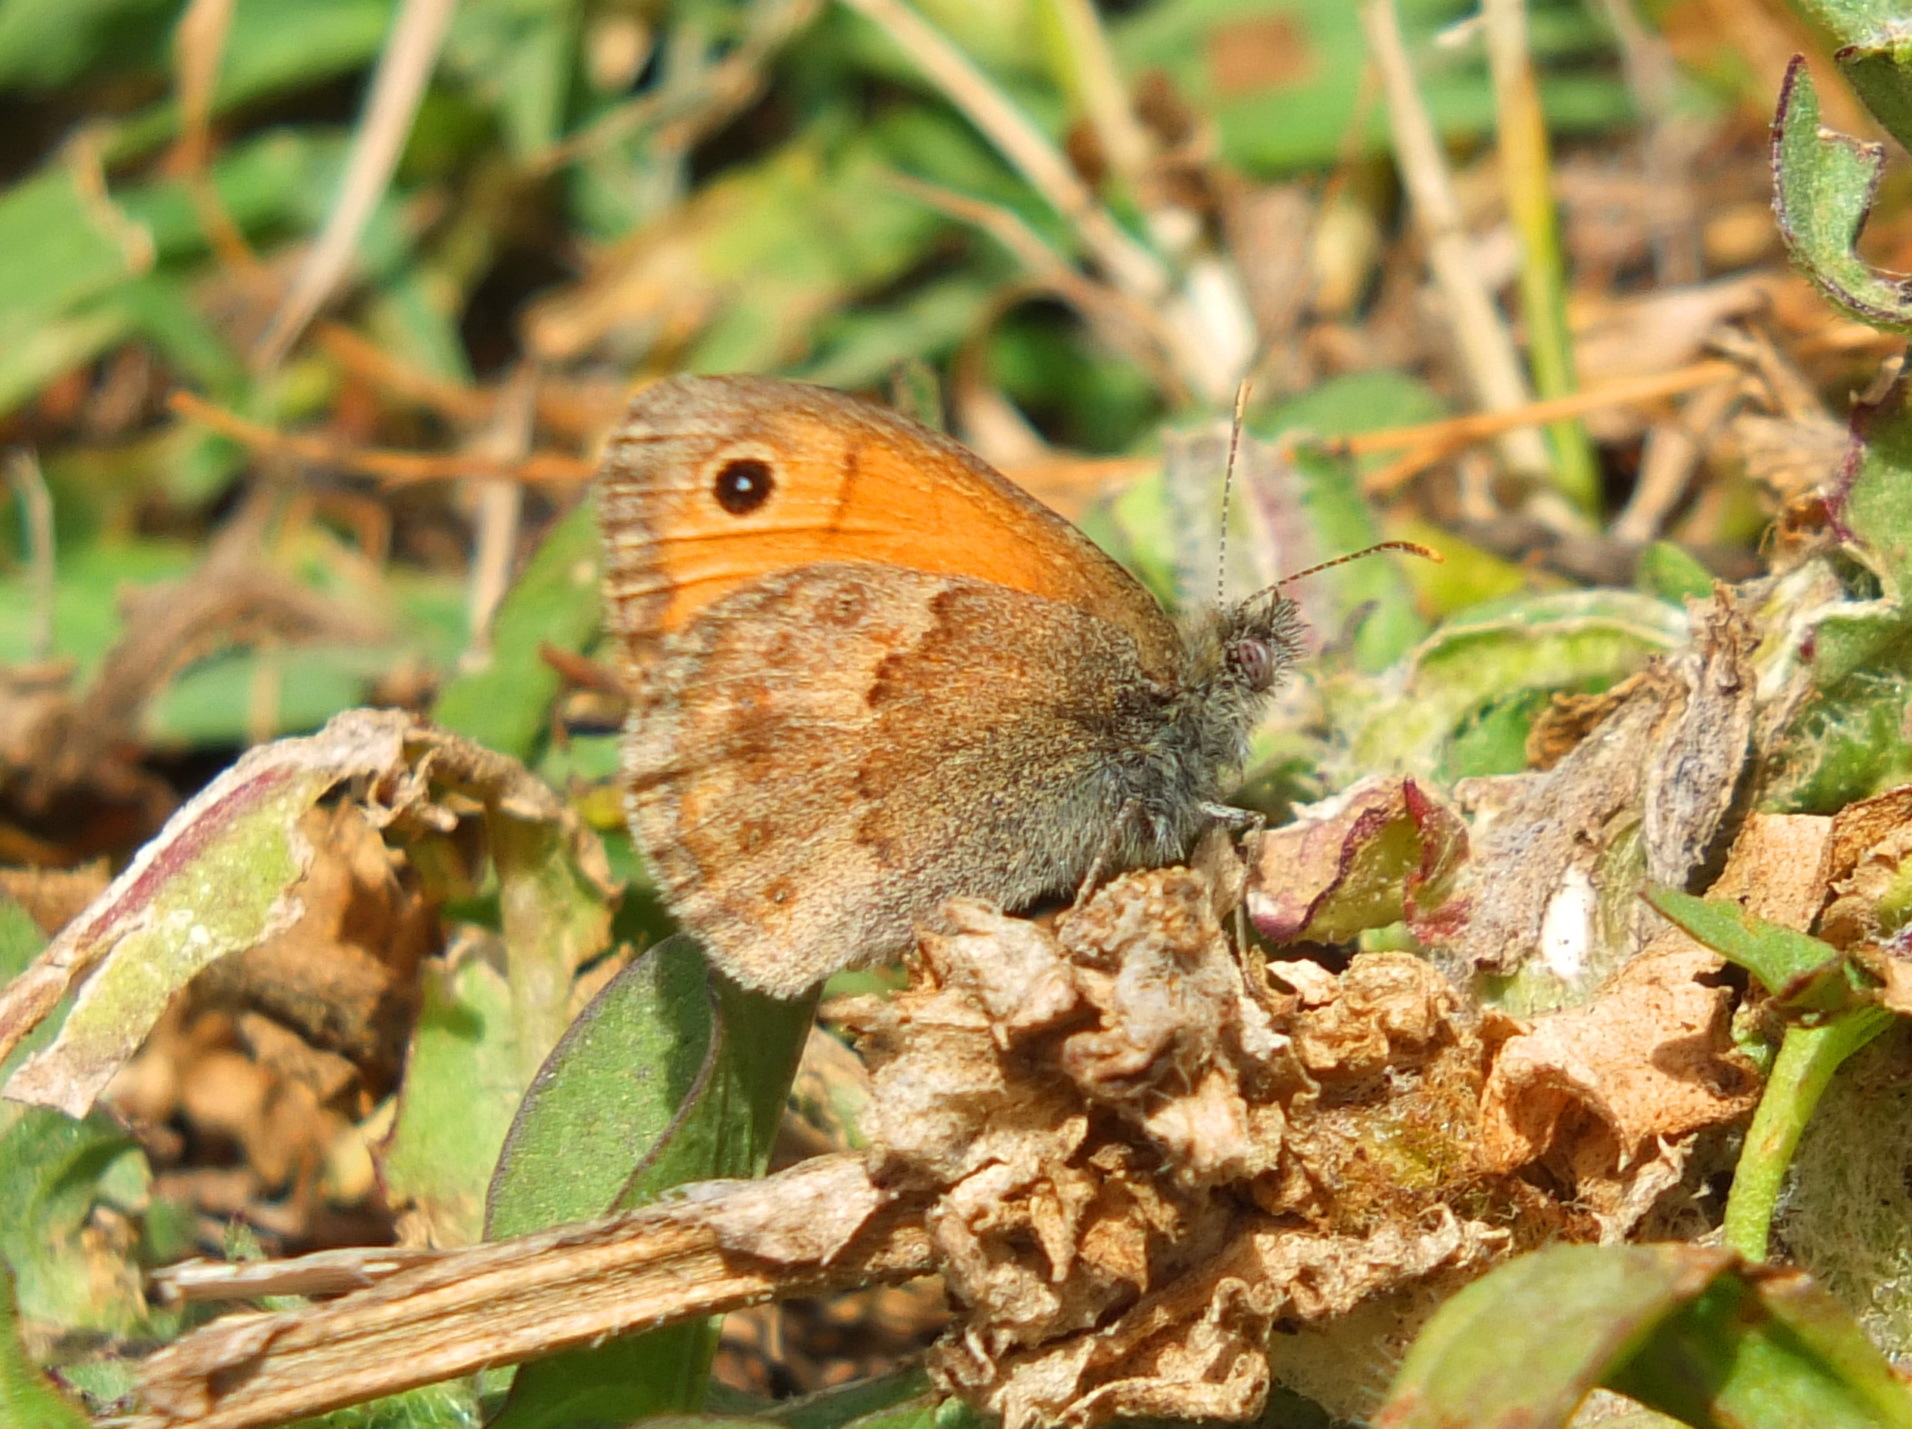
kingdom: Animalia
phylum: Arthropoda
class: Insecta
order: Lepidoptera
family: Nymphalidae
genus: Coenonympha
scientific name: Coenonympha pamphilus
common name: Small heath
